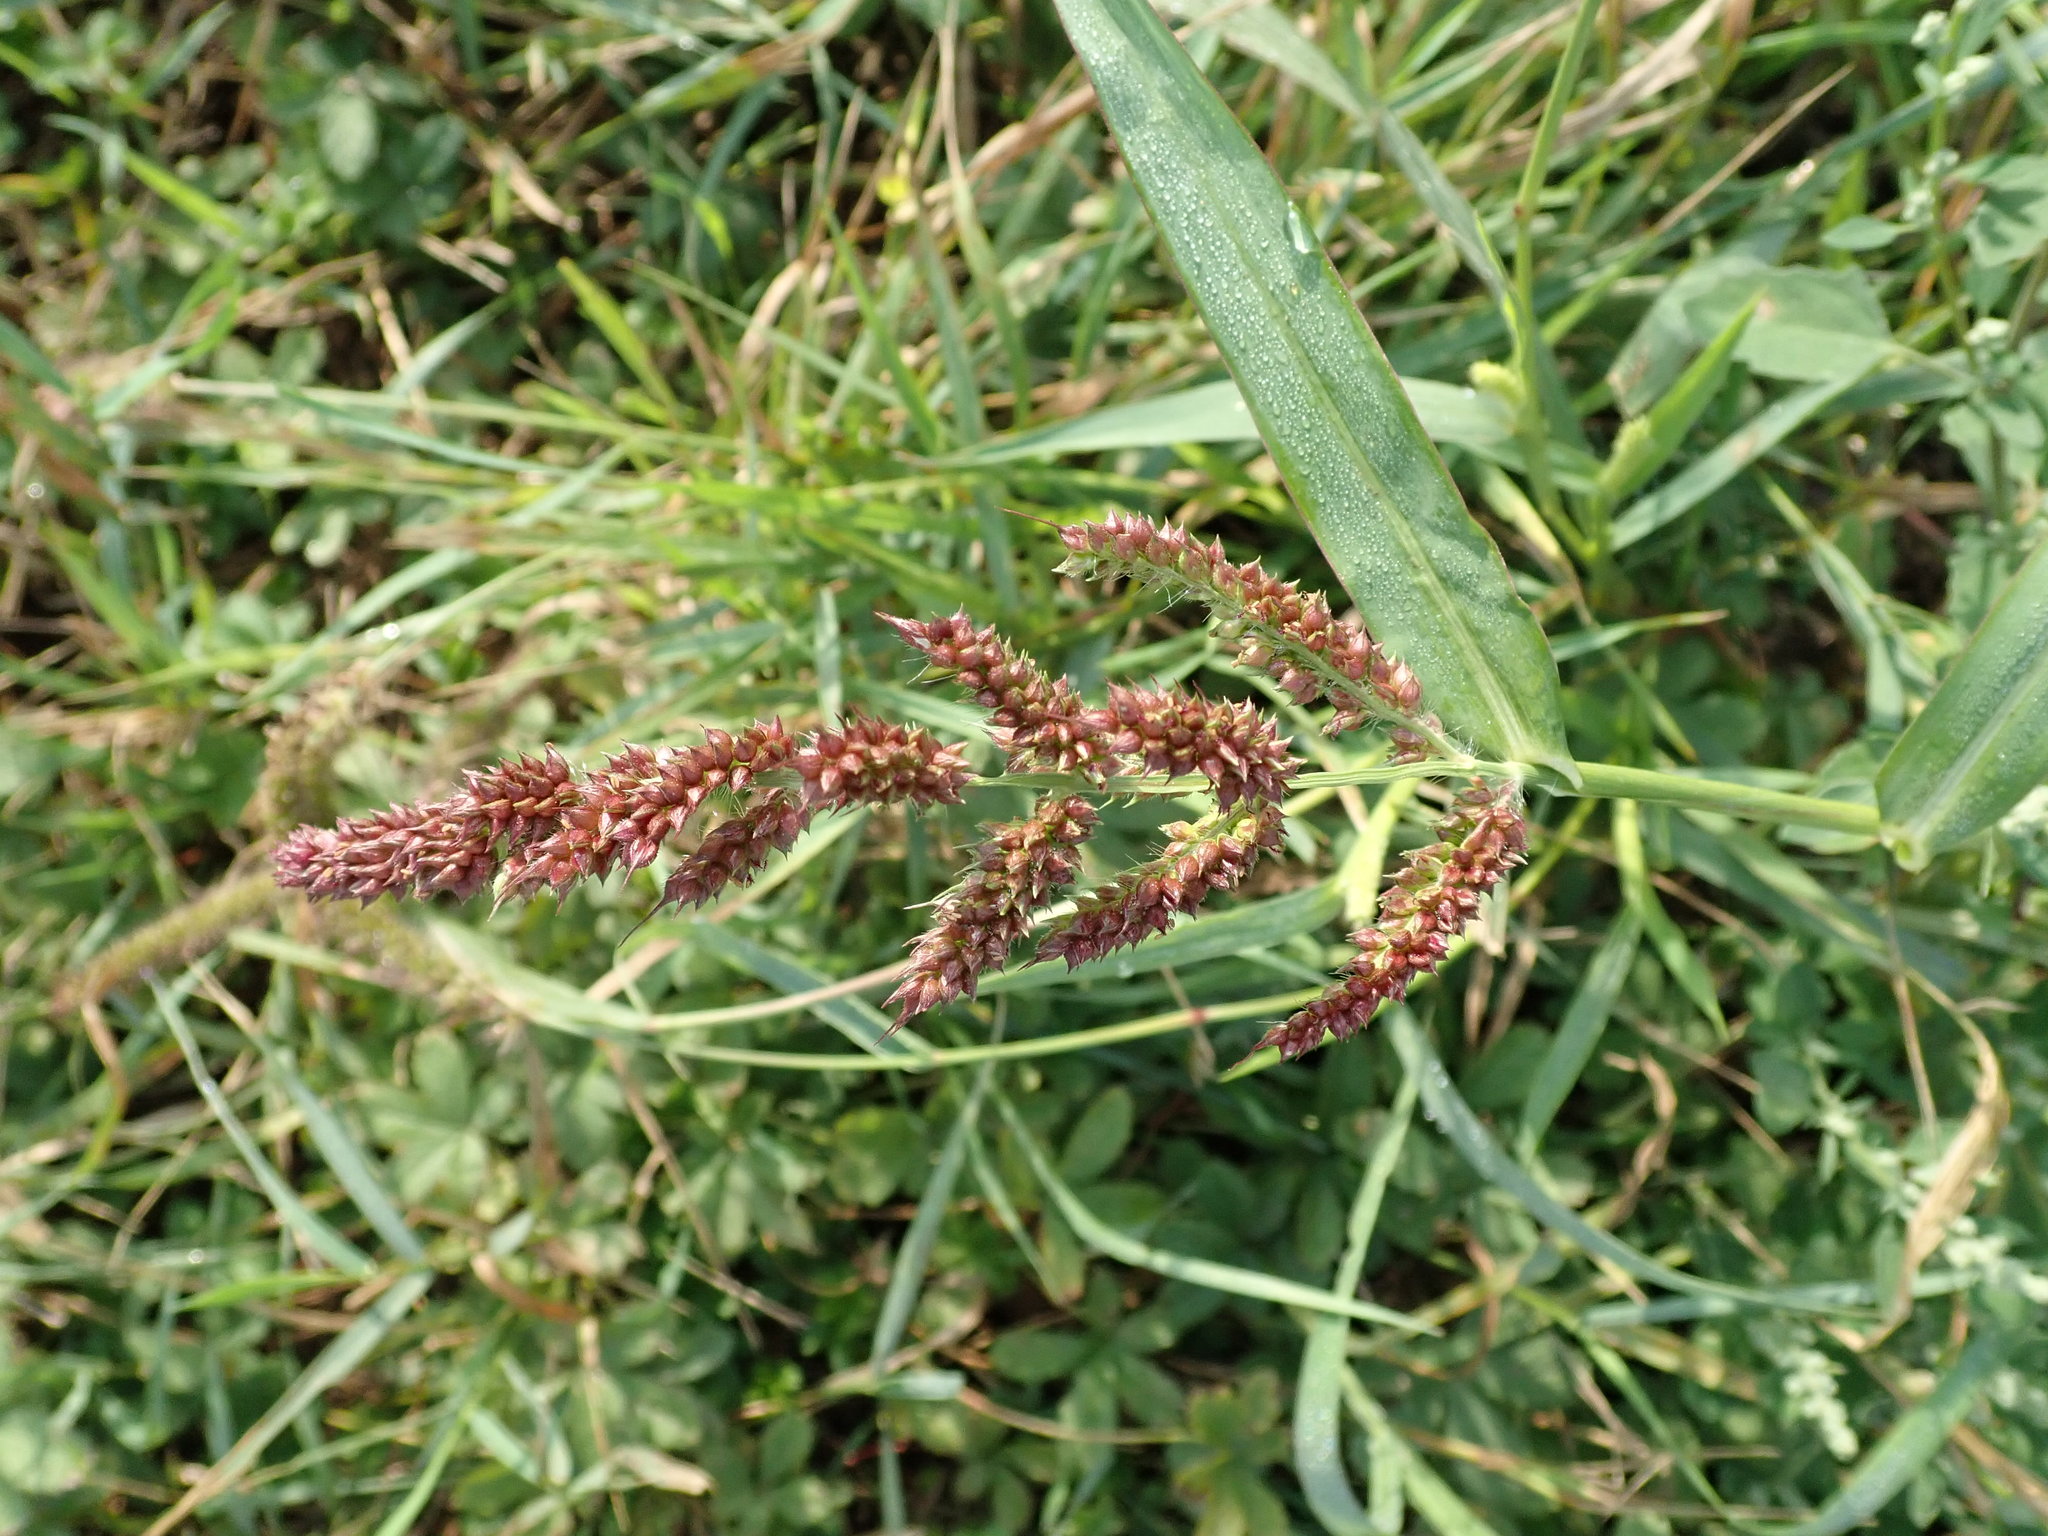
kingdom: Plantae
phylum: Tracheophyta
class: Liliopsida
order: Poales
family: Poaceae
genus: Echinochloa
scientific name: Echinochloa crus-galli
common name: Cockspur
